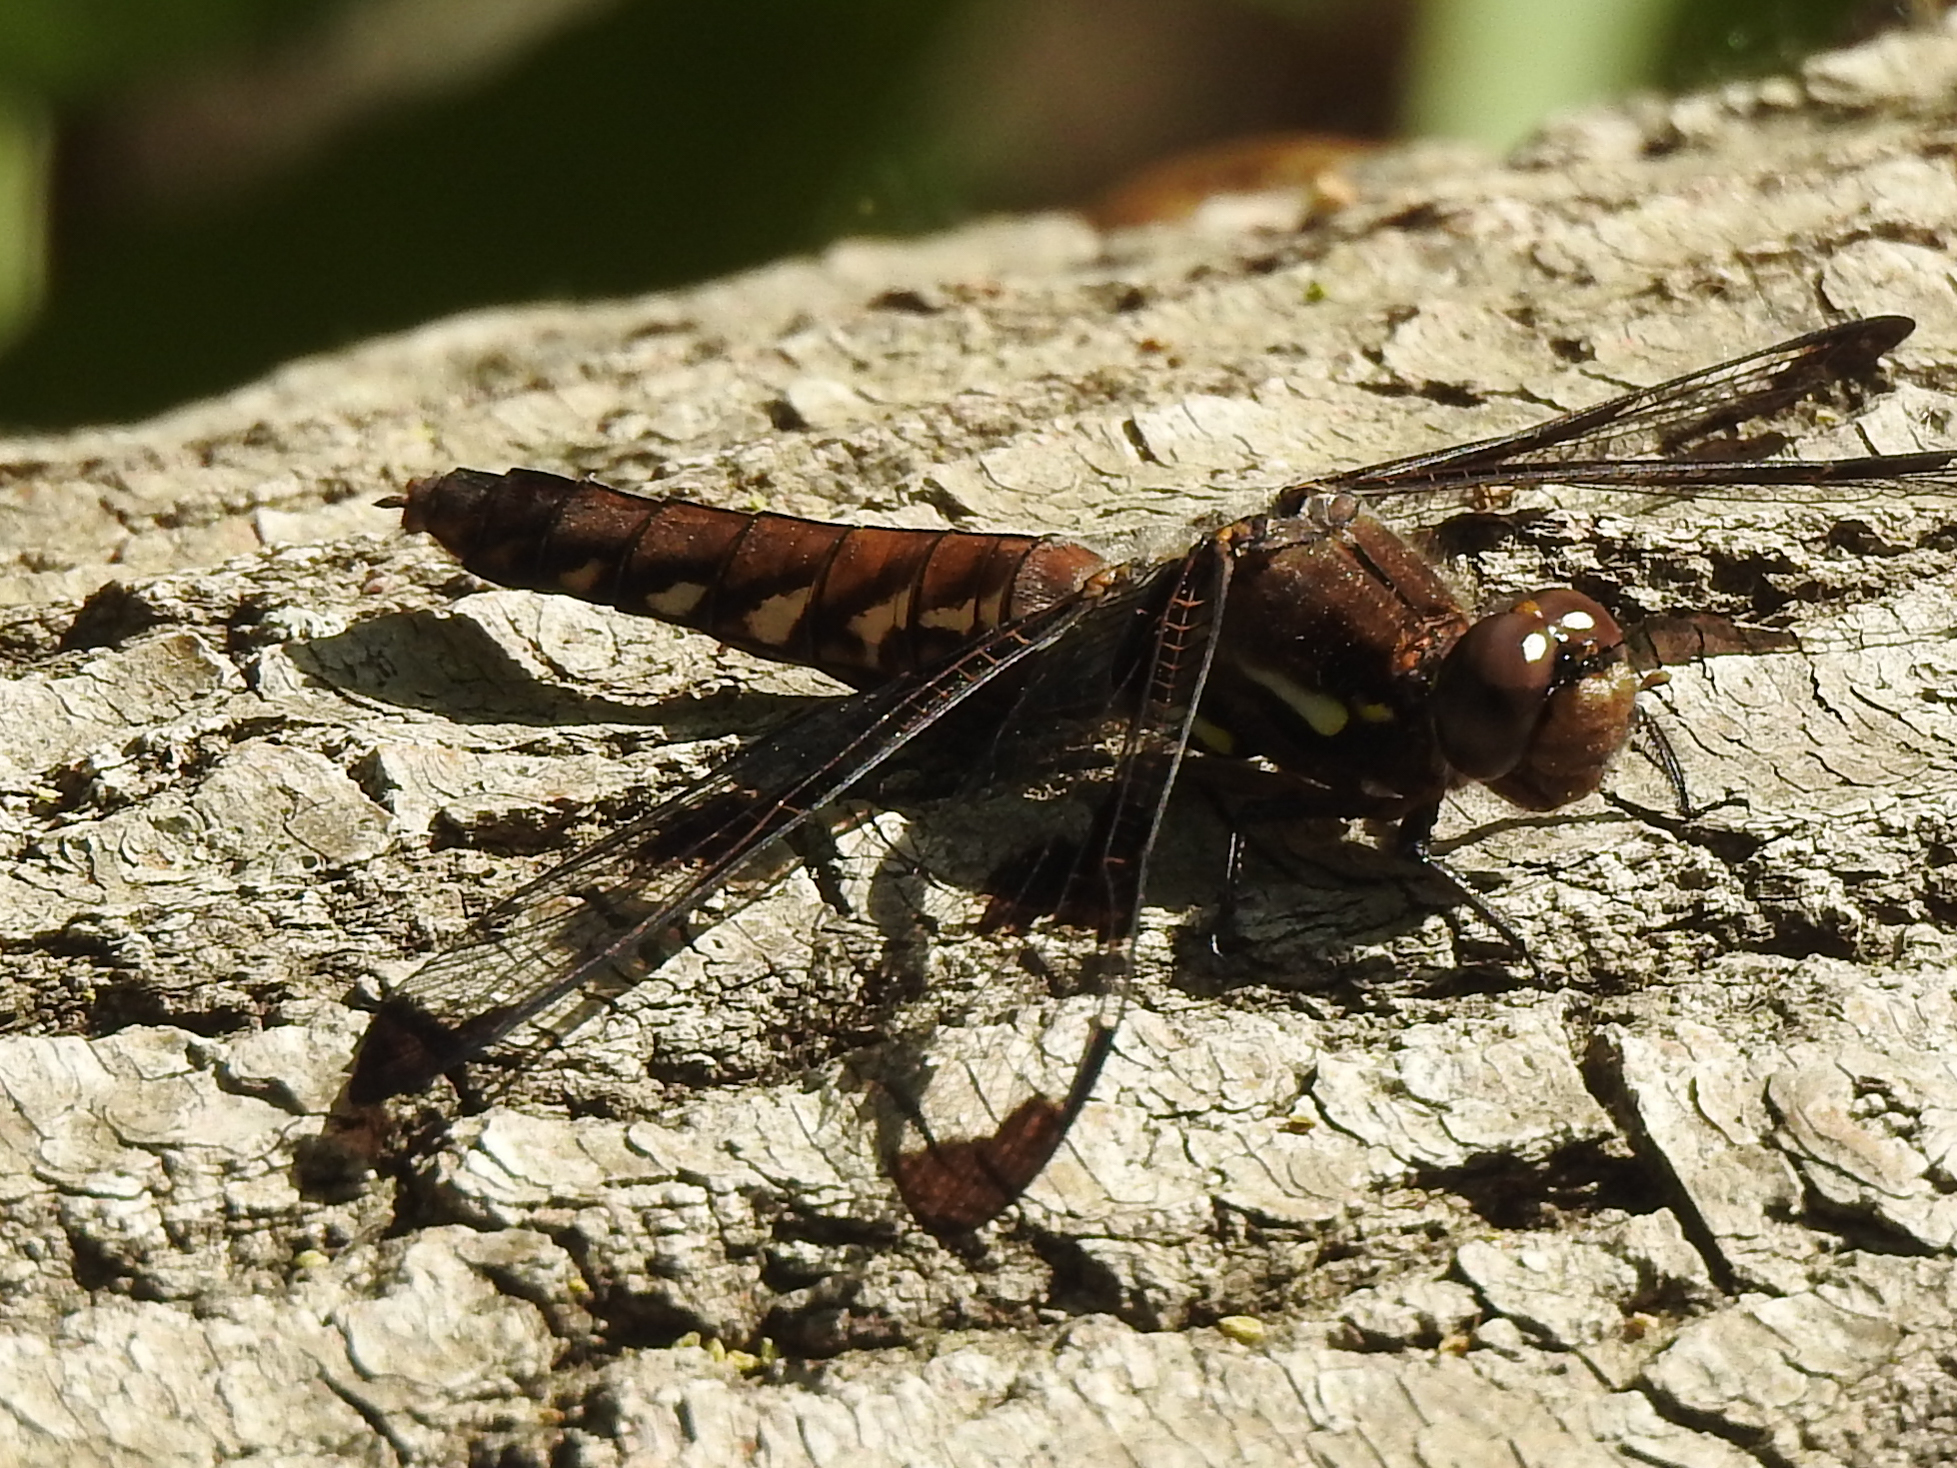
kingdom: Animalia
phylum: Arthropoda
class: Insecta
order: Odonata
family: Libellulidae
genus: Plathemis
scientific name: Plathemis lydia
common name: Common whitetail
